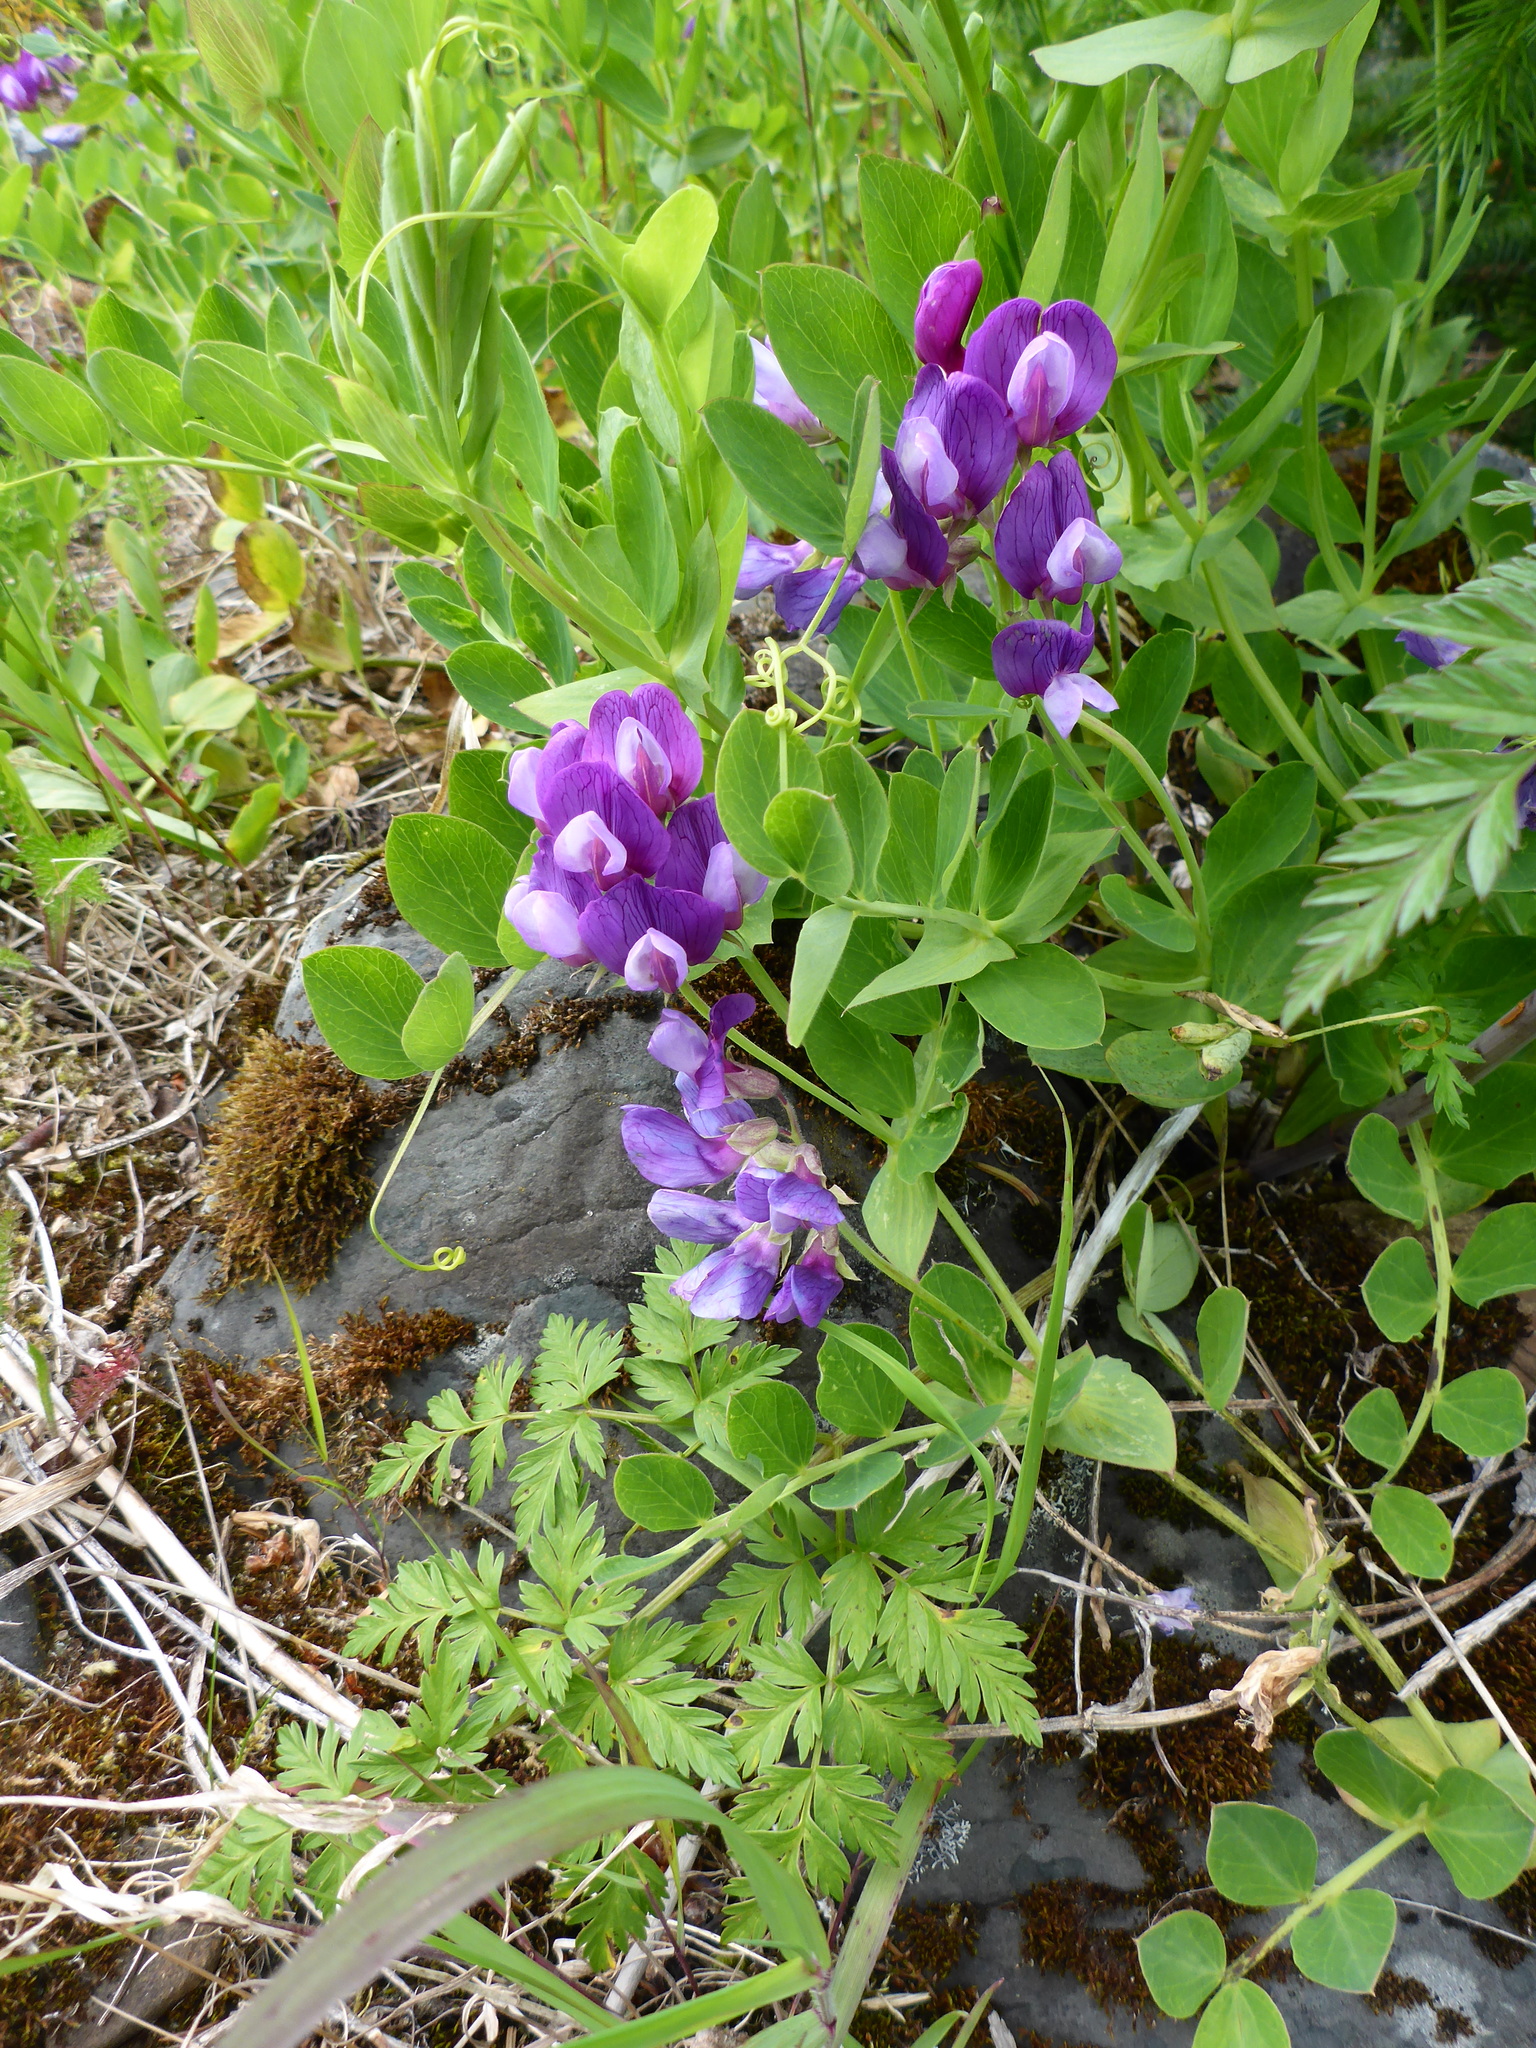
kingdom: Plantae
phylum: Tracheophyta
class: Magnoliopsida
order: Fabales
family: Fabaceae
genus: Lathyrus
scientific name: Lathyrus japonicus
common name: Sea pea
